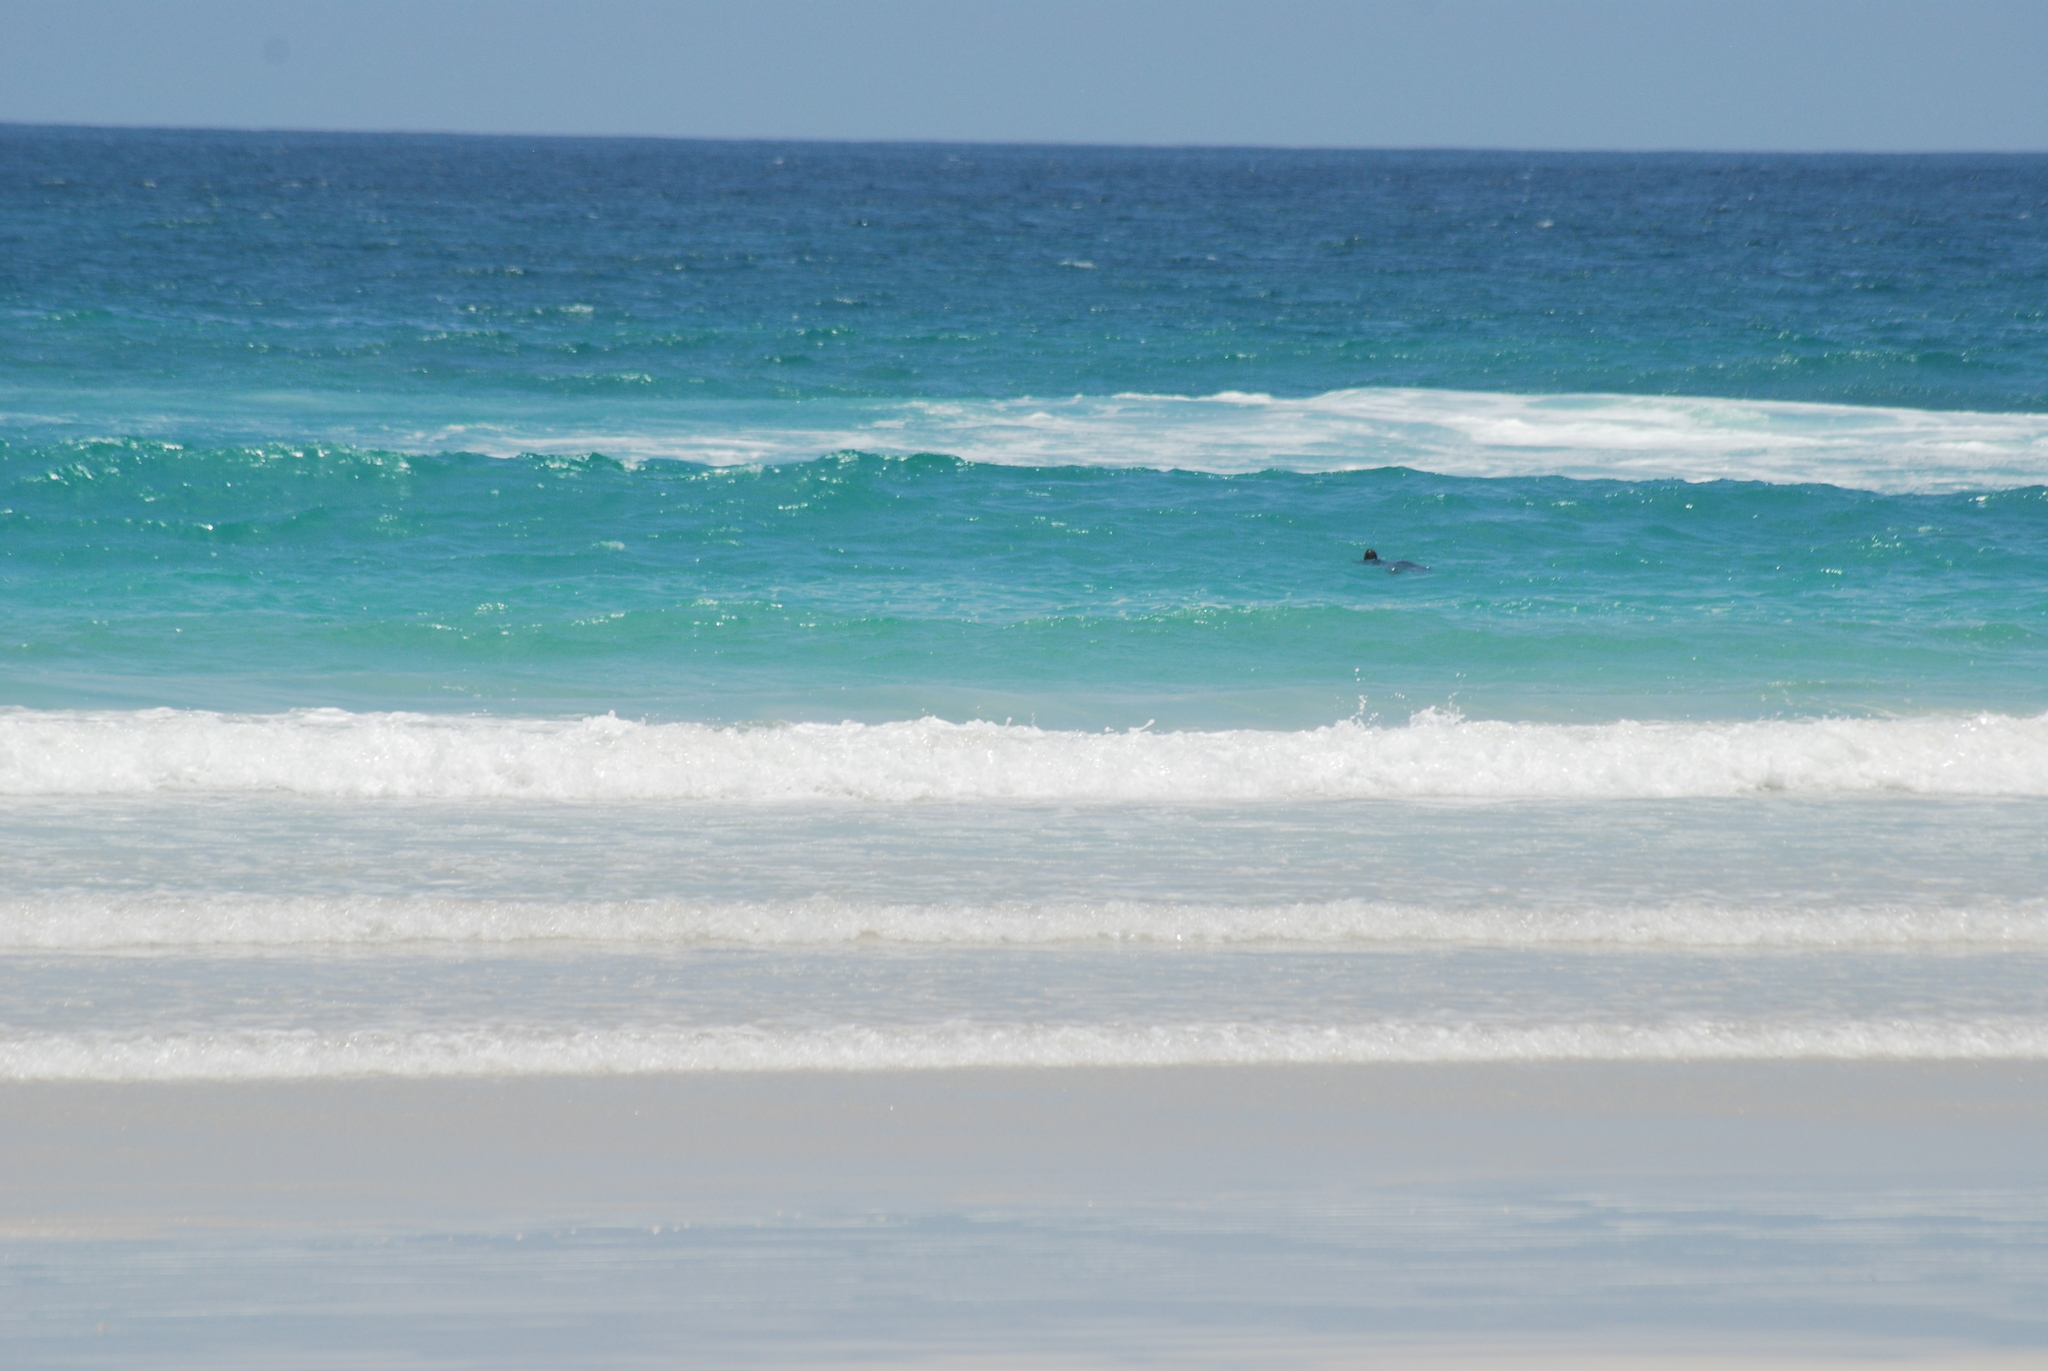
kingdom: Animalia
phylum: Chordata
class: Squamata
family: Iguanidae
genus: Amblyrhynchus
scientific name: Amblyrhynchus cristatus
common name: Marine iguana
